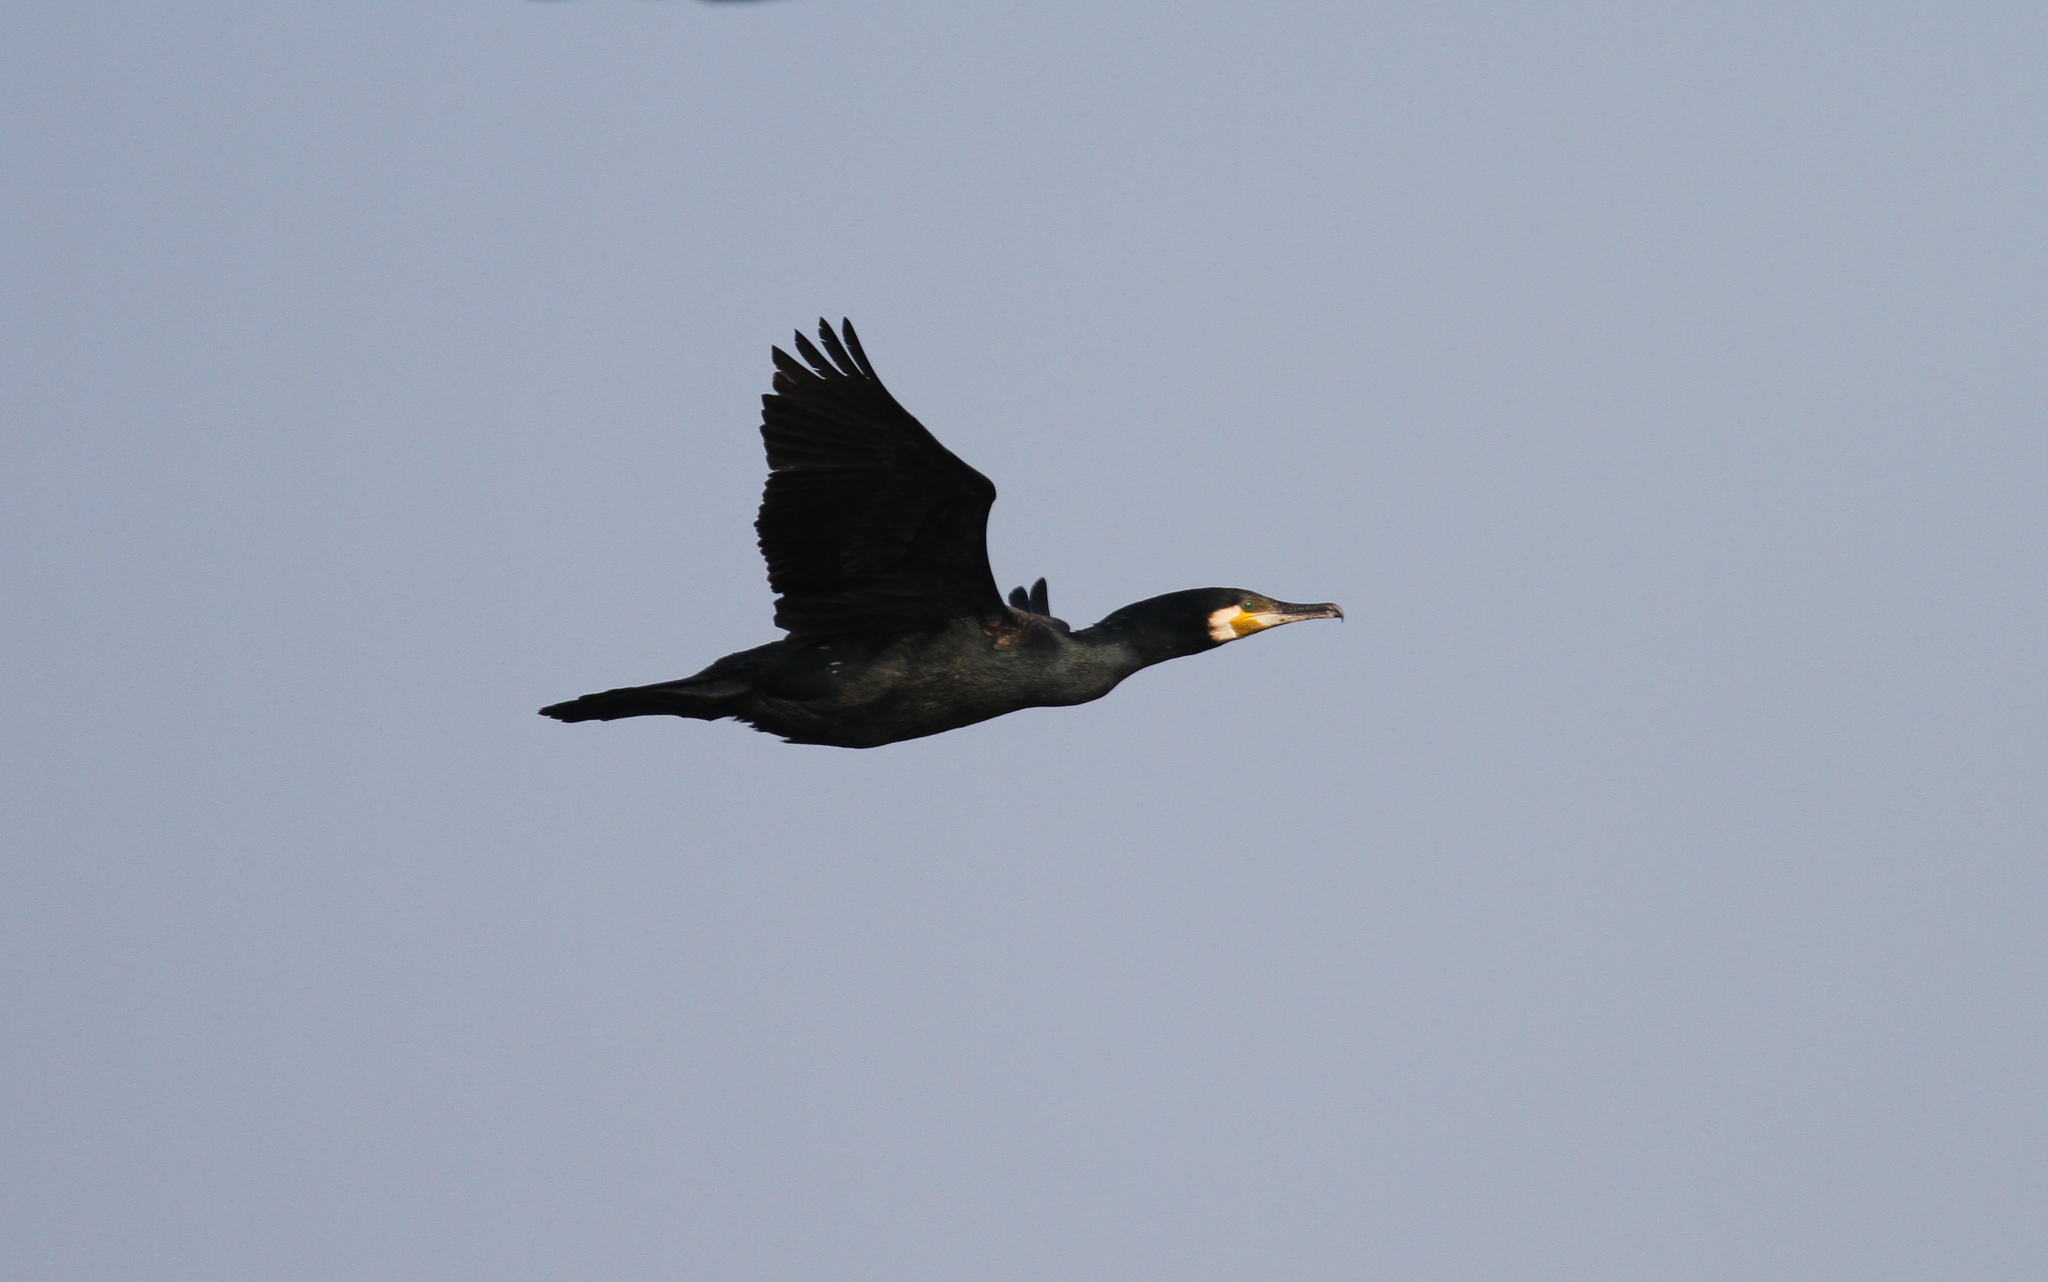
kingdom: Animalia
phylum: Chordata
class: Aves
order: Suliformes
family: Phalacrocoracidae
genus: Phalacrocorax
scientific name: Phalacrocorax carbo
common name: Great cormorant
